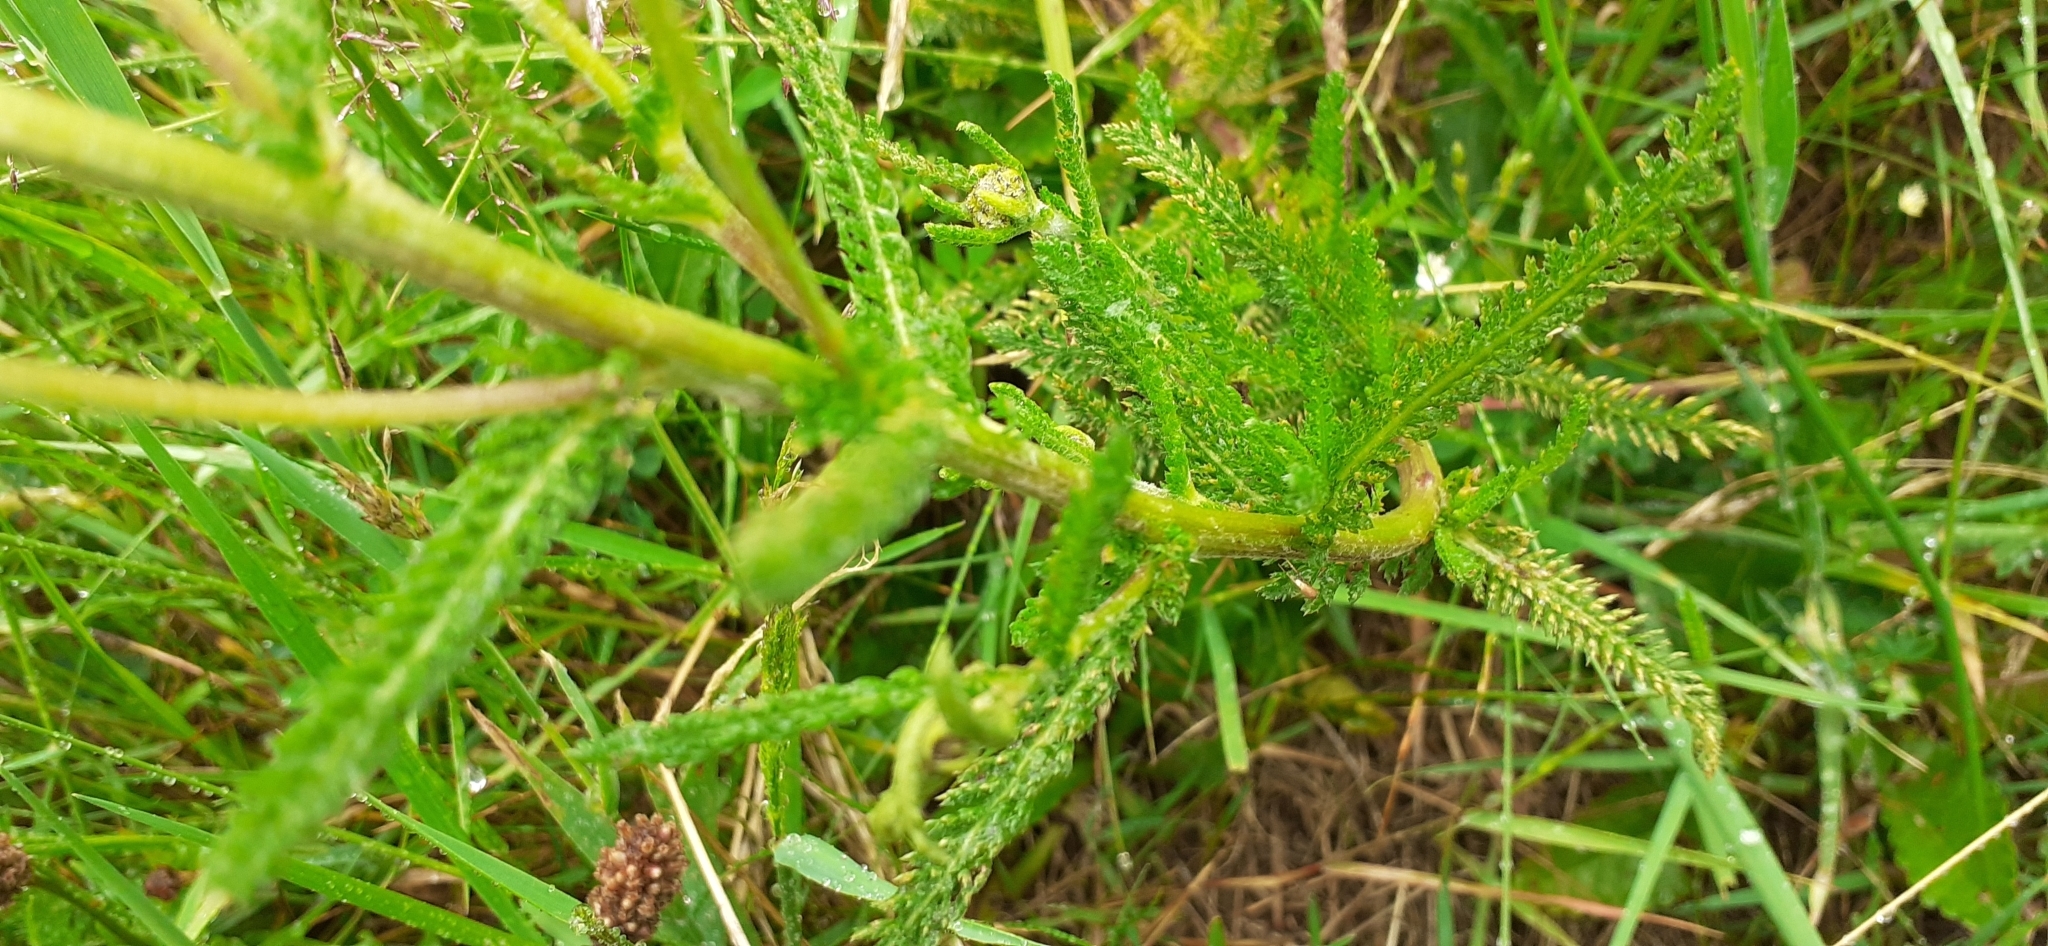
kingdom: Plantae
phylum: Tracheophyta
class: Magnoliopsida
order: Asterales
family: Asteraceae
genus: Achillea
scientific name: Achillea millefolium
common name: Yarrow
